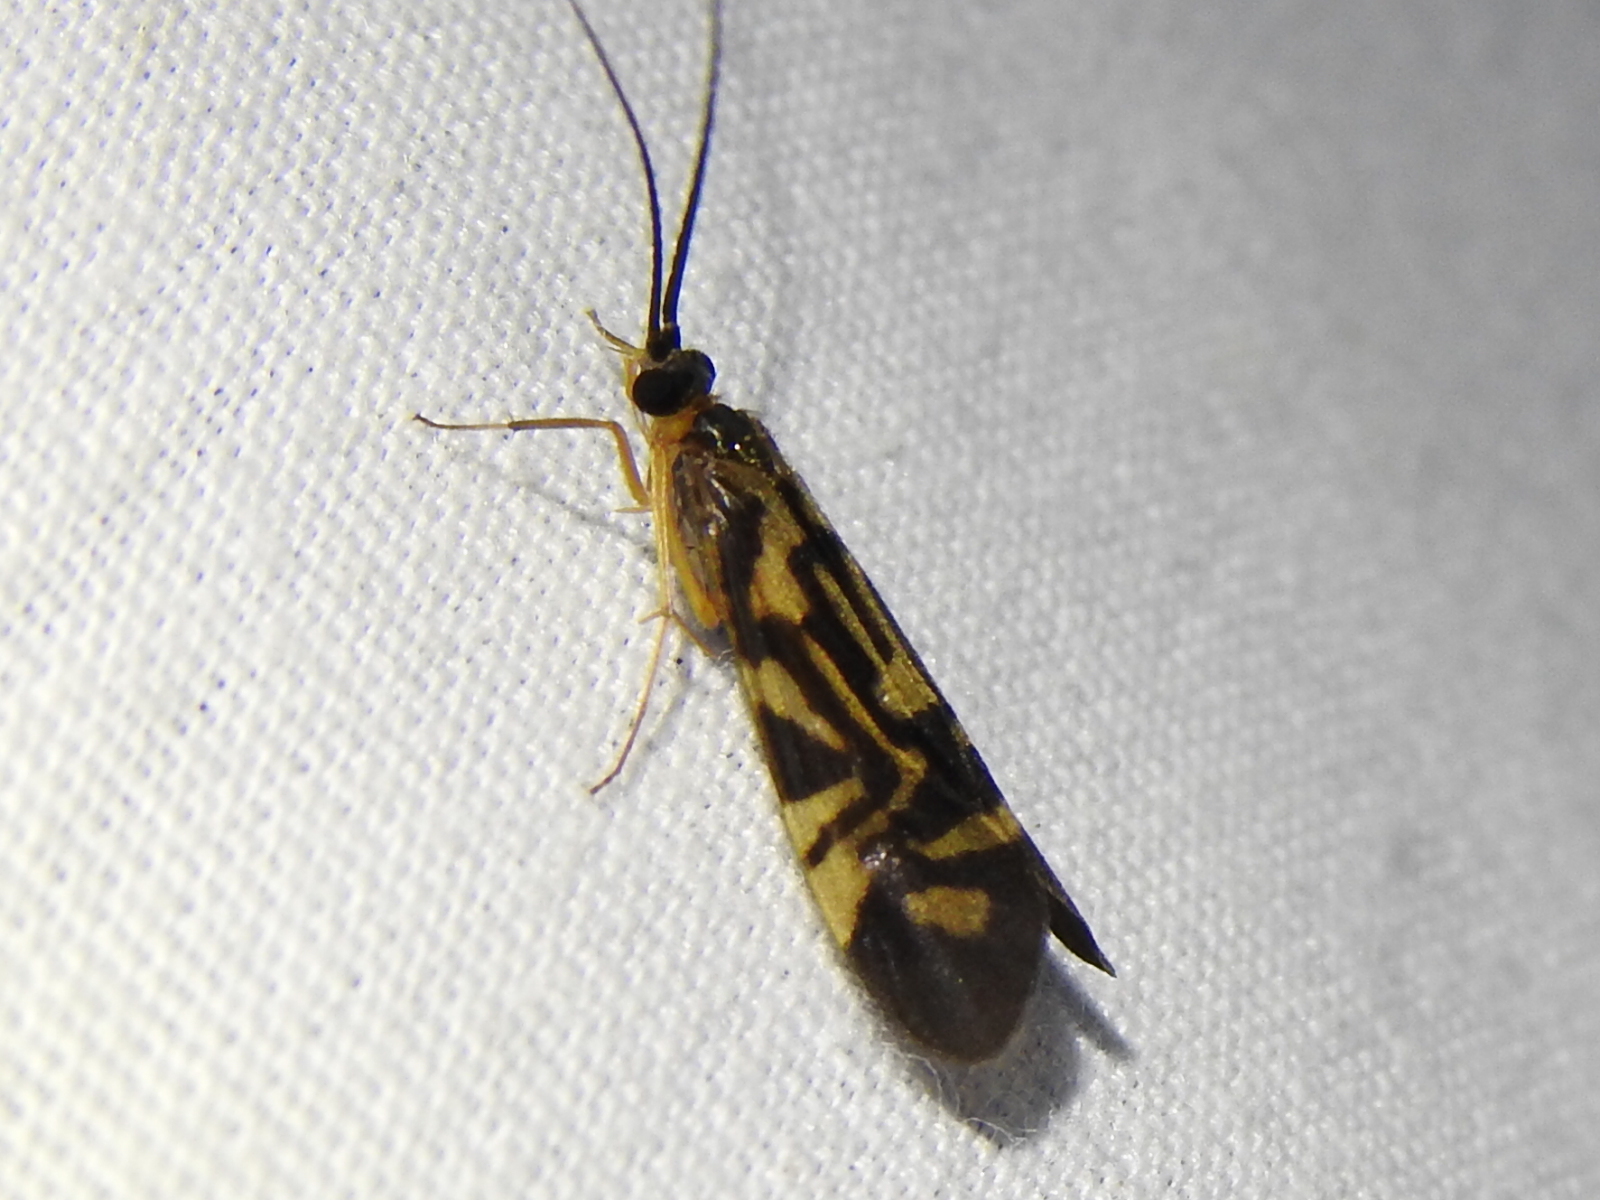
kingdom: Animalia
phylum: Arthropoda
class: Insecta
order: Trichoptera
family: Hydropsychidae
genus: Macrostemum
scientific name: Macrostemum carolina
